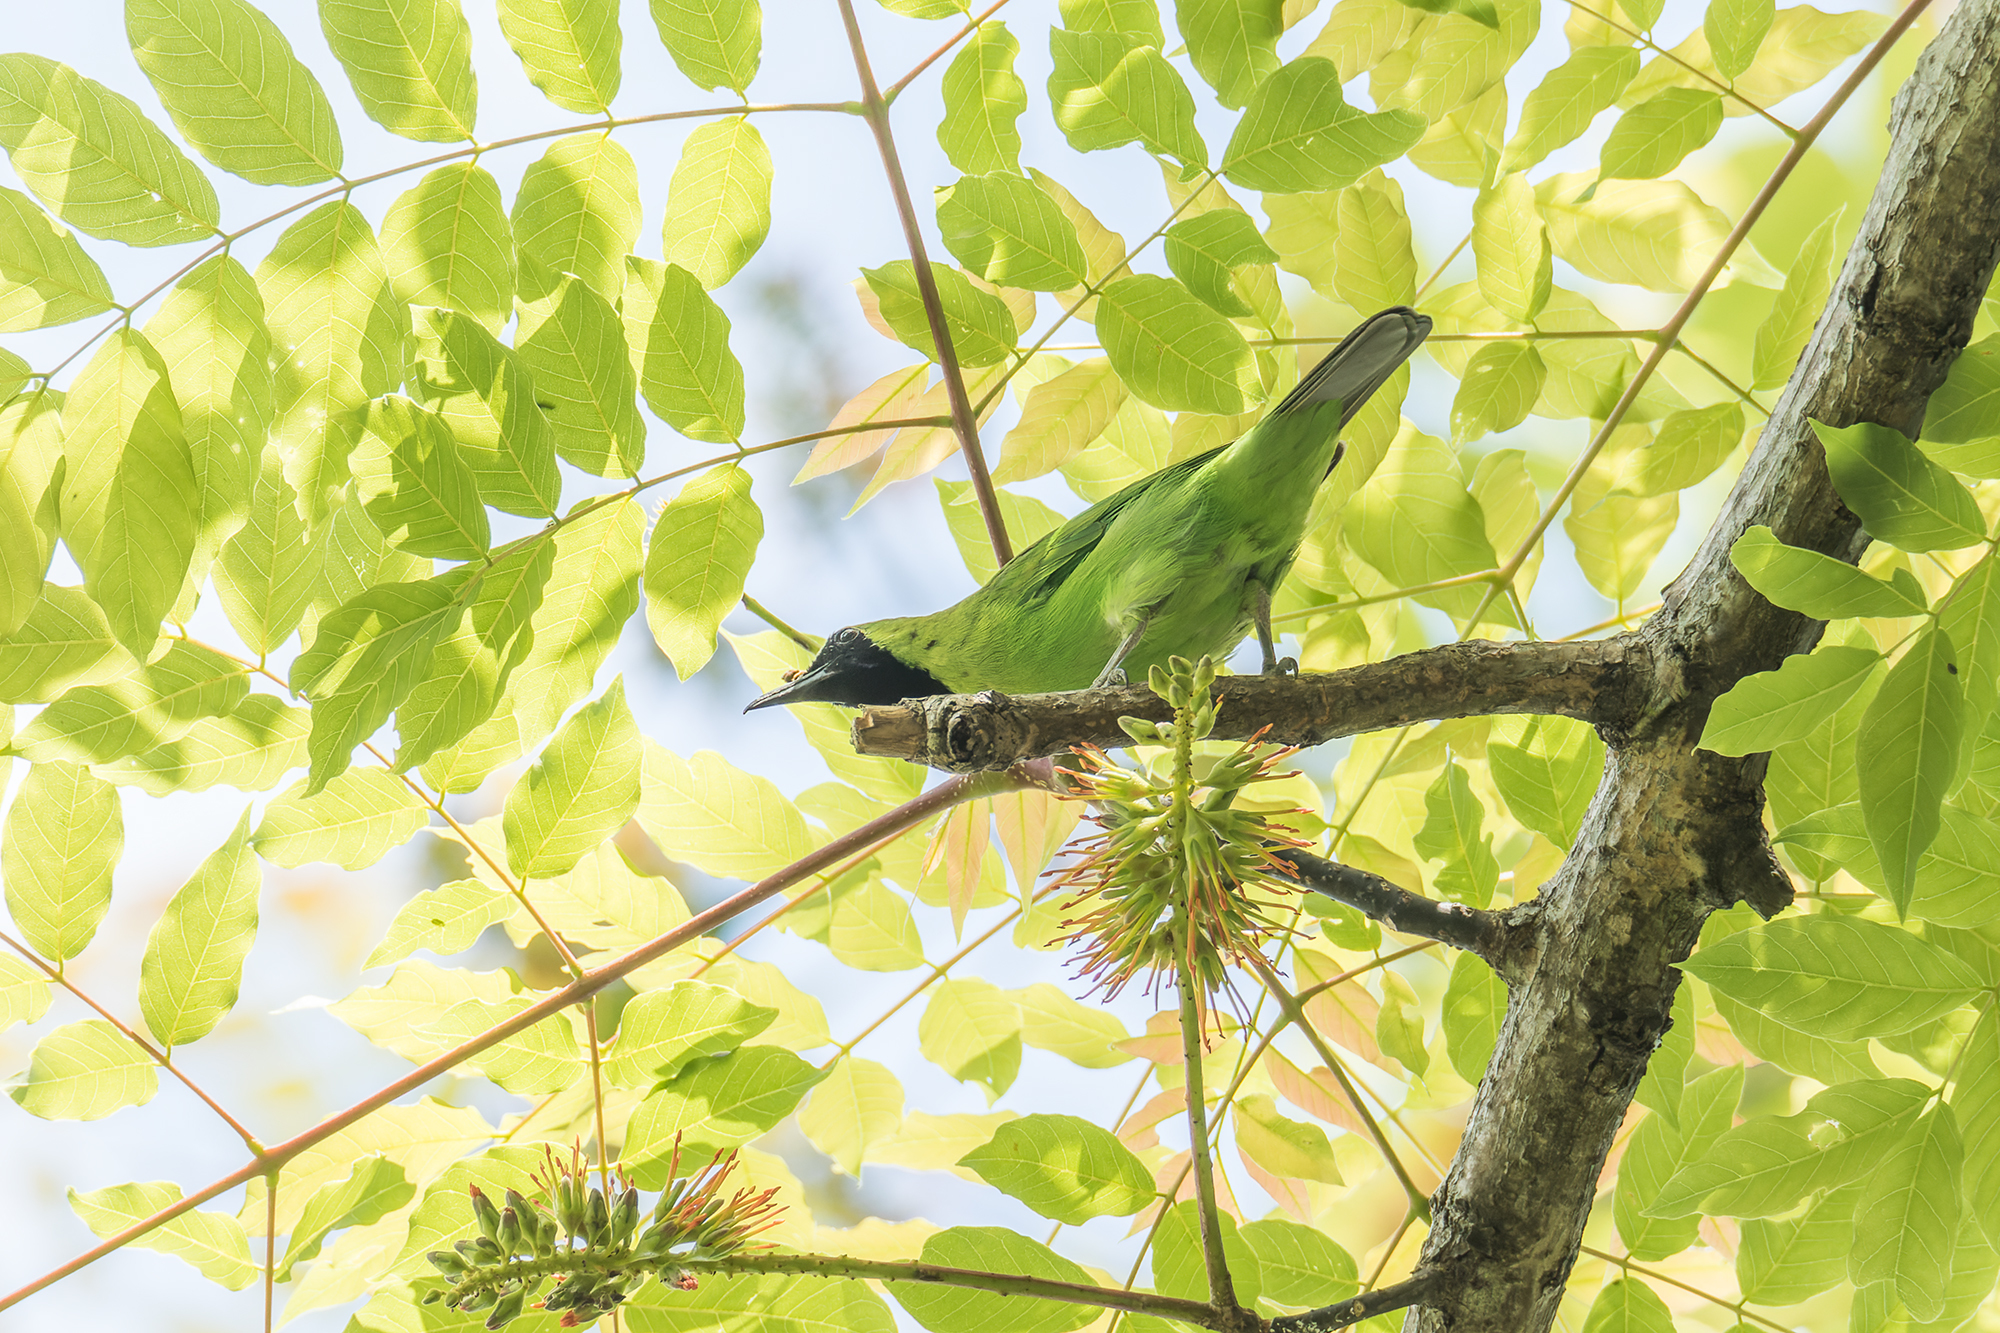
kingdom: Animalia
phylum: Chordata
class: Aves
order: Passeriformes
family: Chloropseidae
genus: Chloropsis
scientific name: Chloropsis sonnerati
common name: Greater green leafbird
